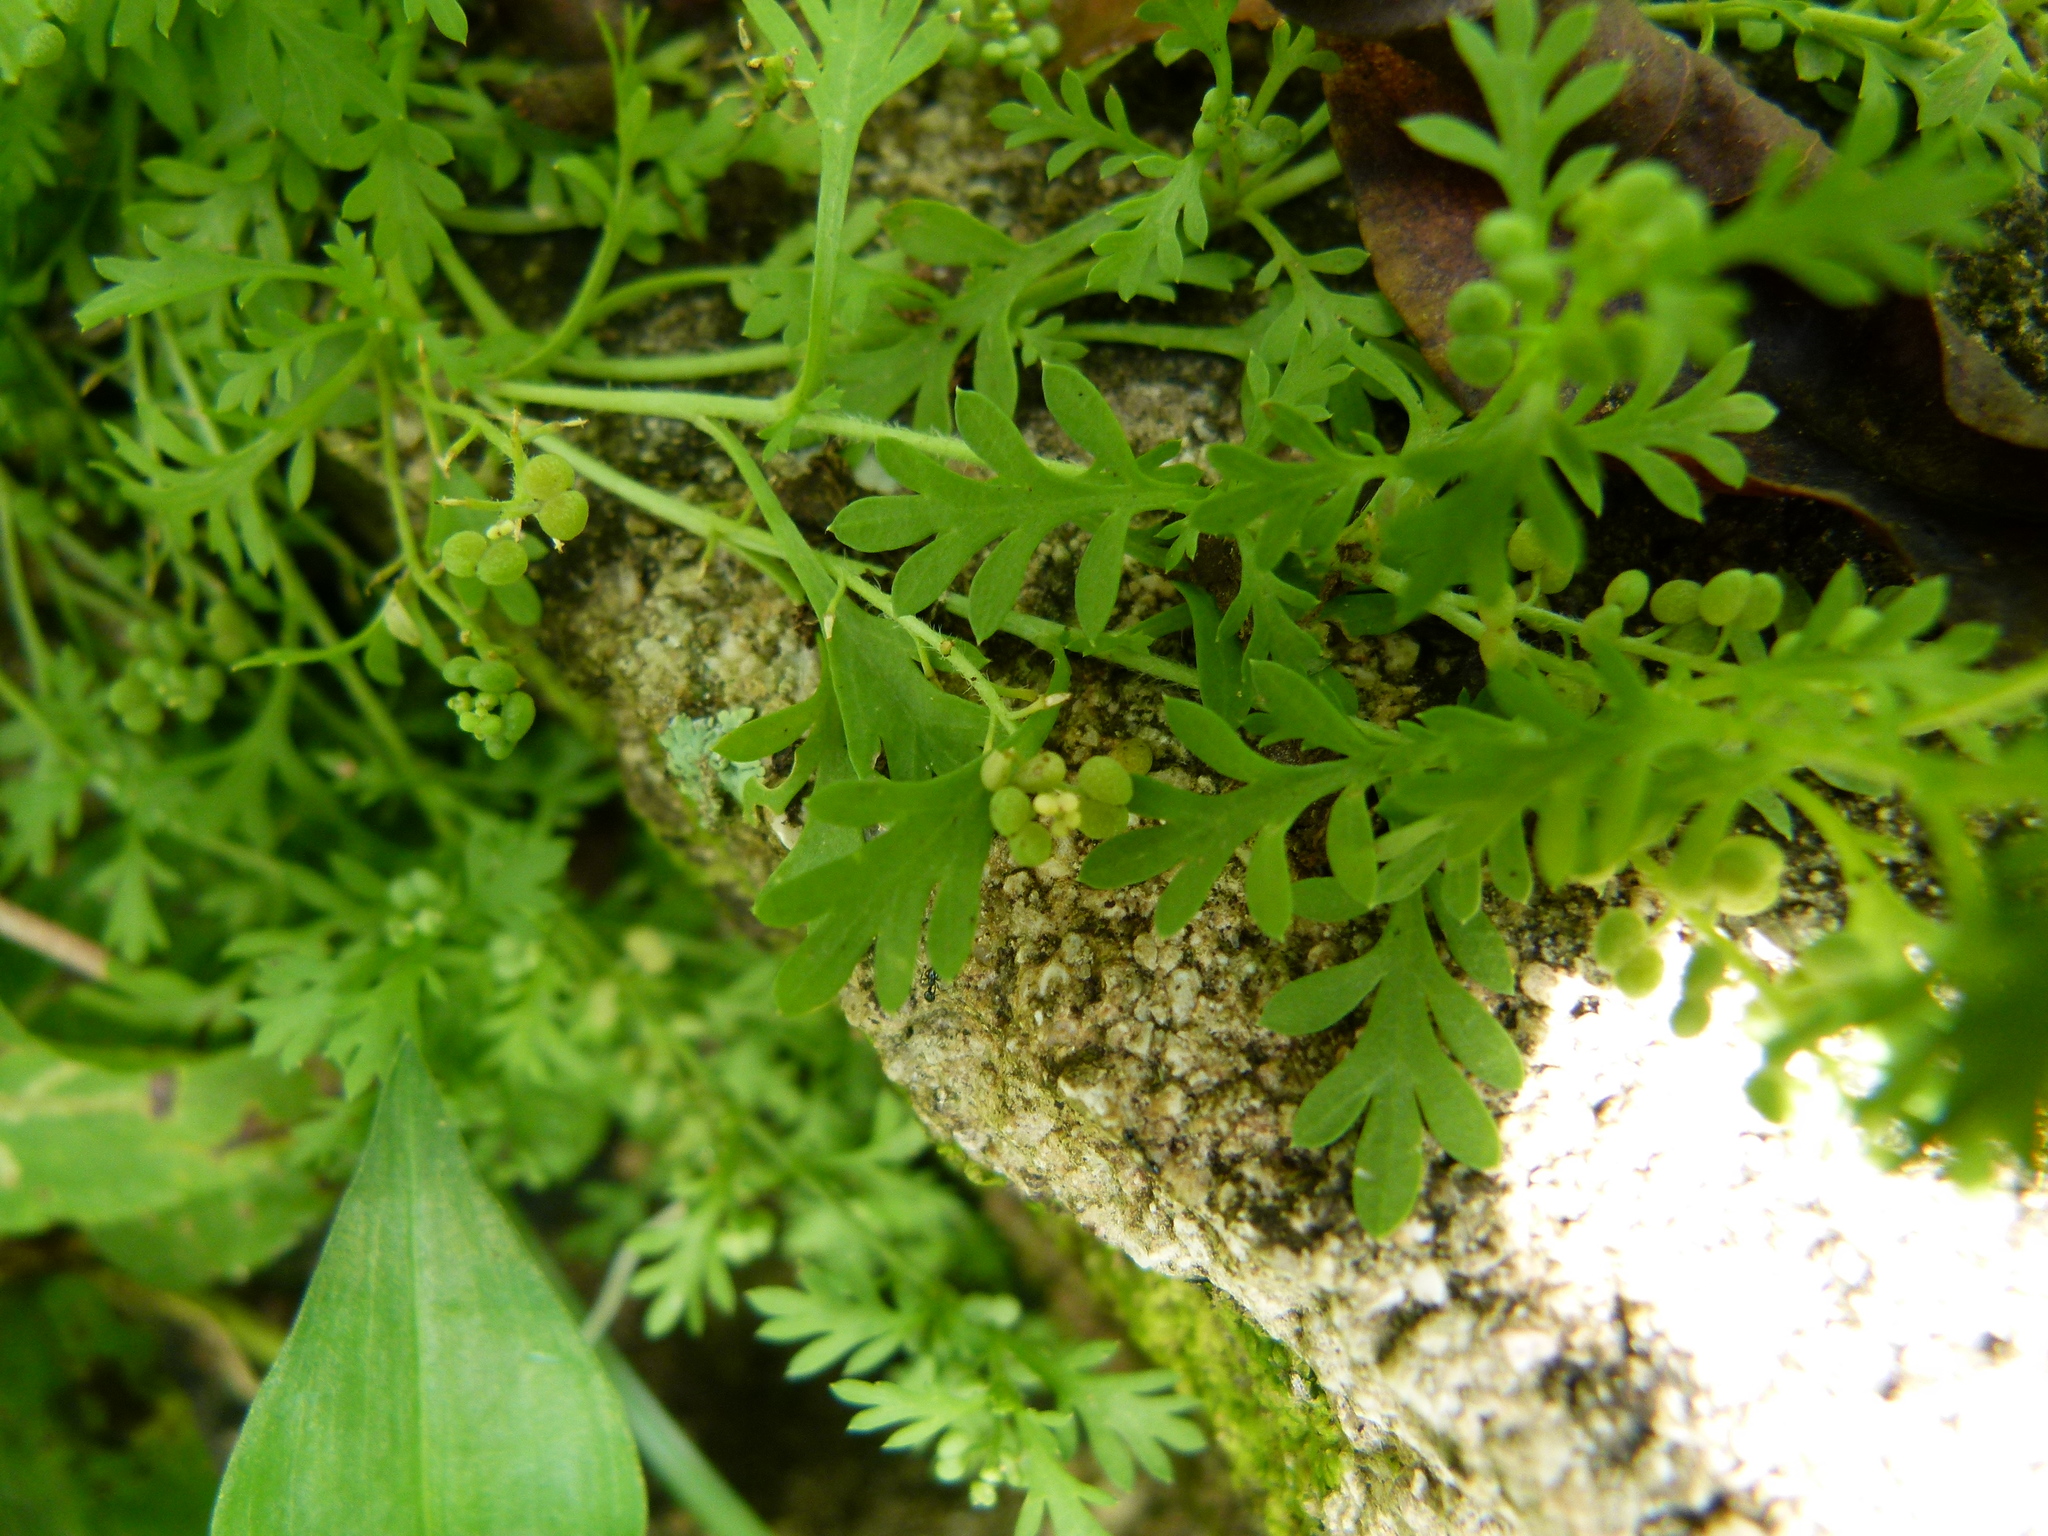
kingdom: Plantae
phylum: Tracheophyta
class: Magnoliopsida
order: Brassicales
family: Brassicaceae
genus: Lepidium
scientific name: Lepidium didymum
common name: Lesser swinecress
